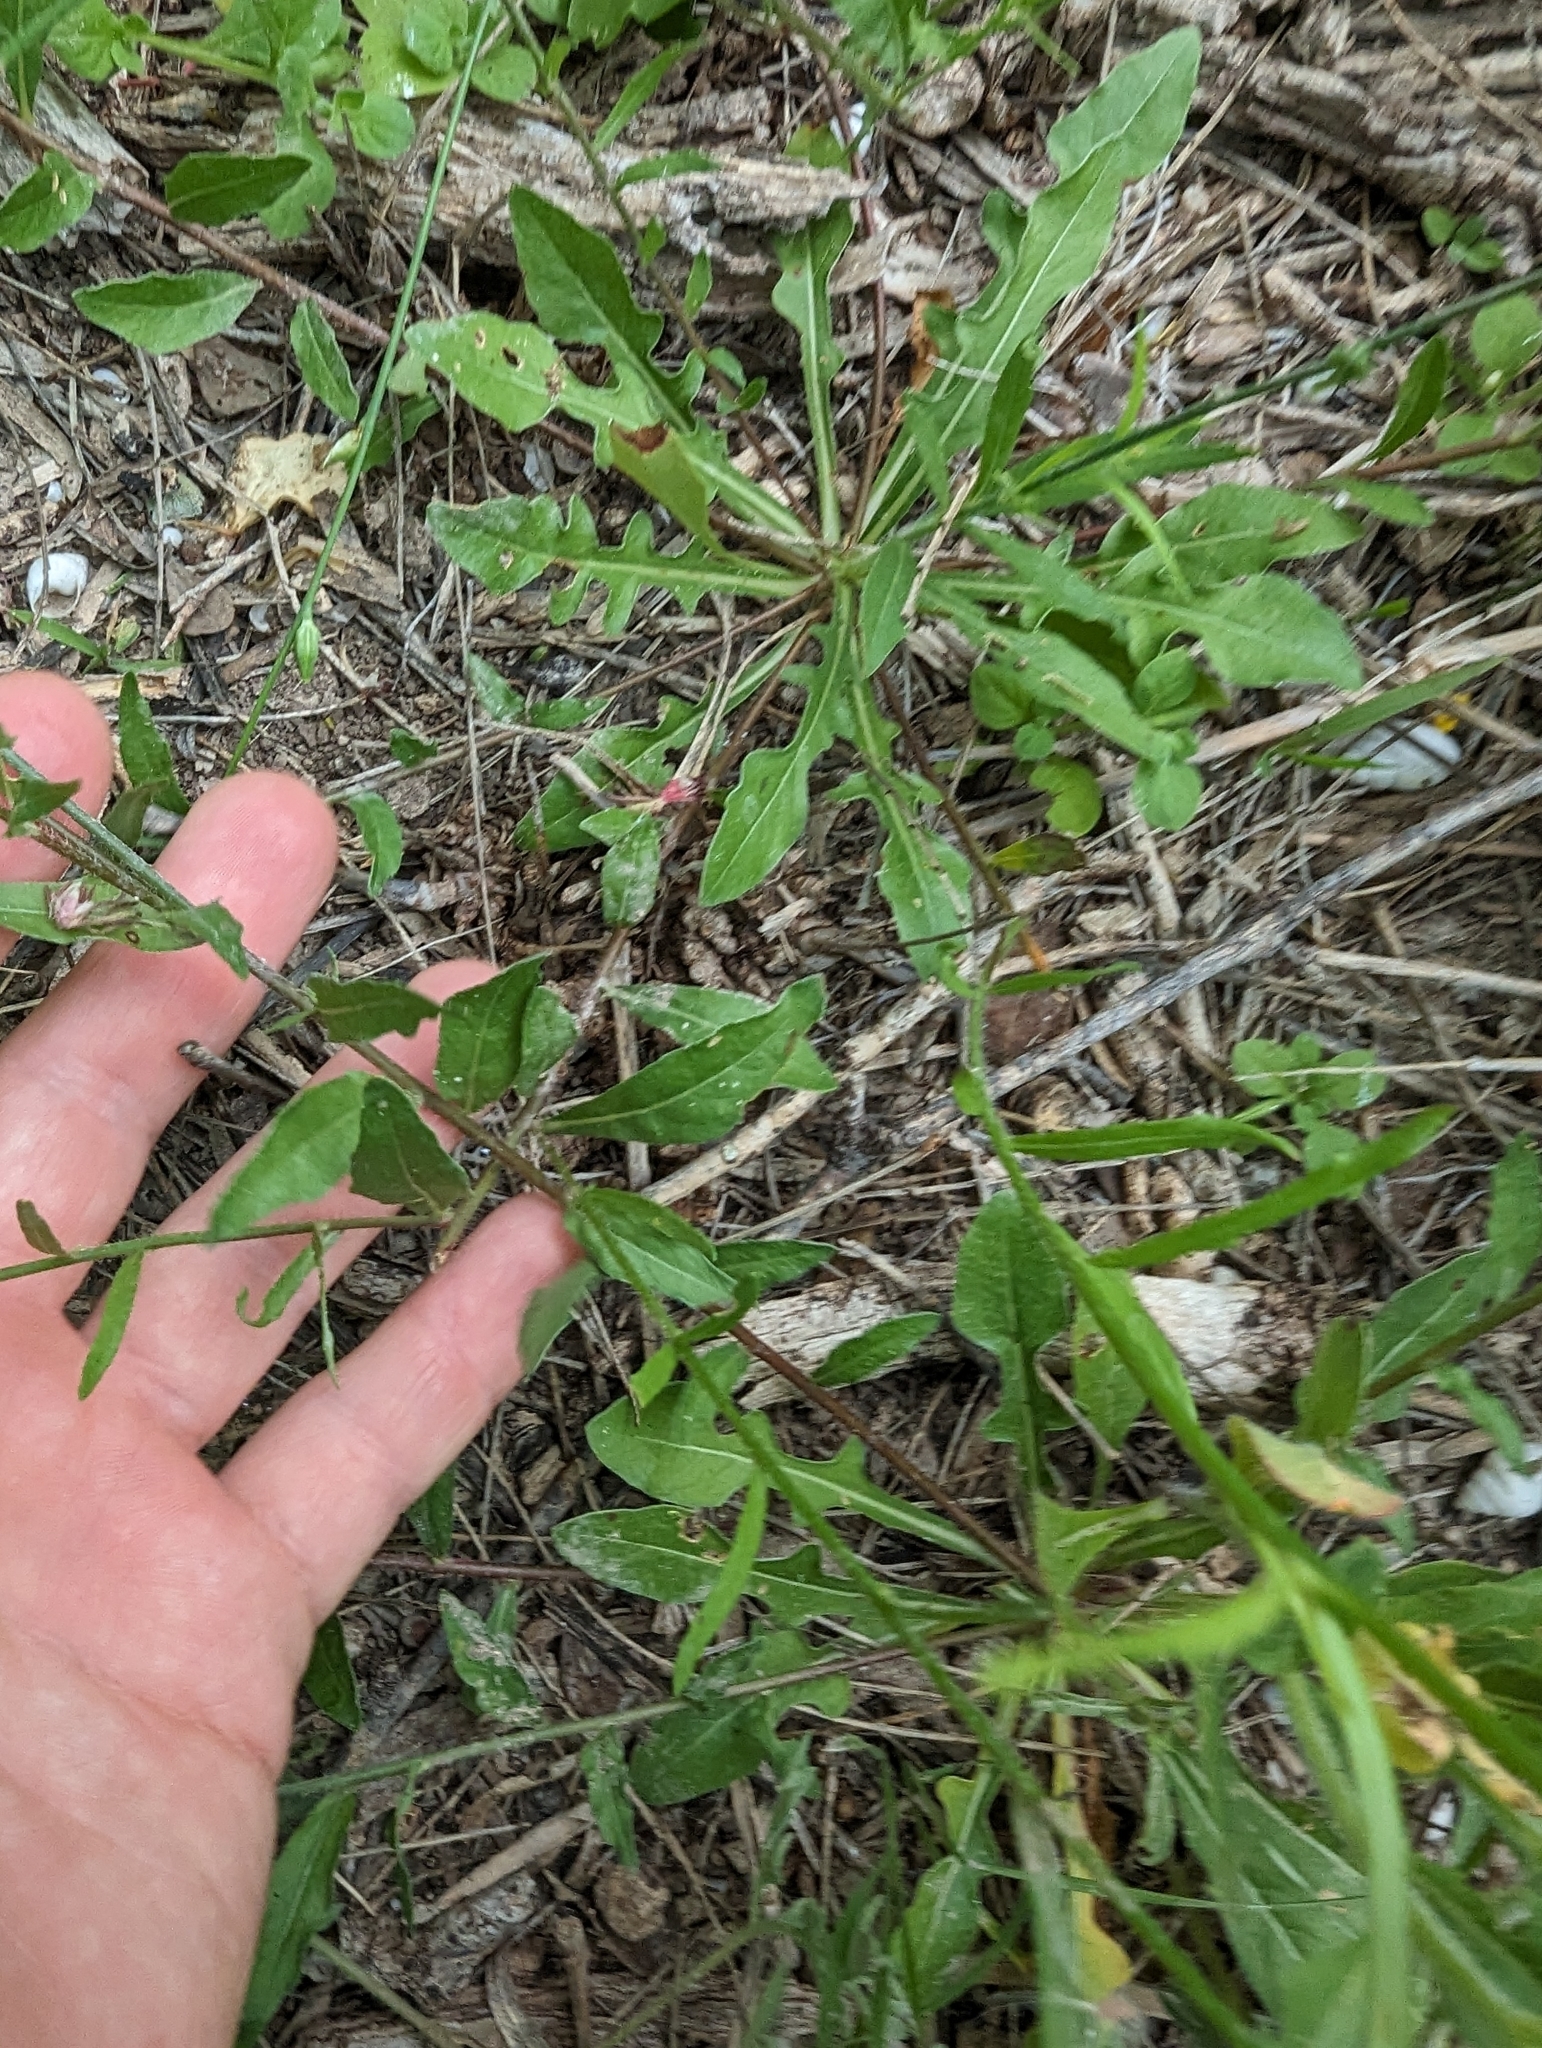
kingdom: Plantae
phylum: Tracheophyta
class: Magnoliopsida
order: Myrtales
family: Onagraceae
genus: Oenothera
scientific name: Oenothera suffulta
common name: Kisses
